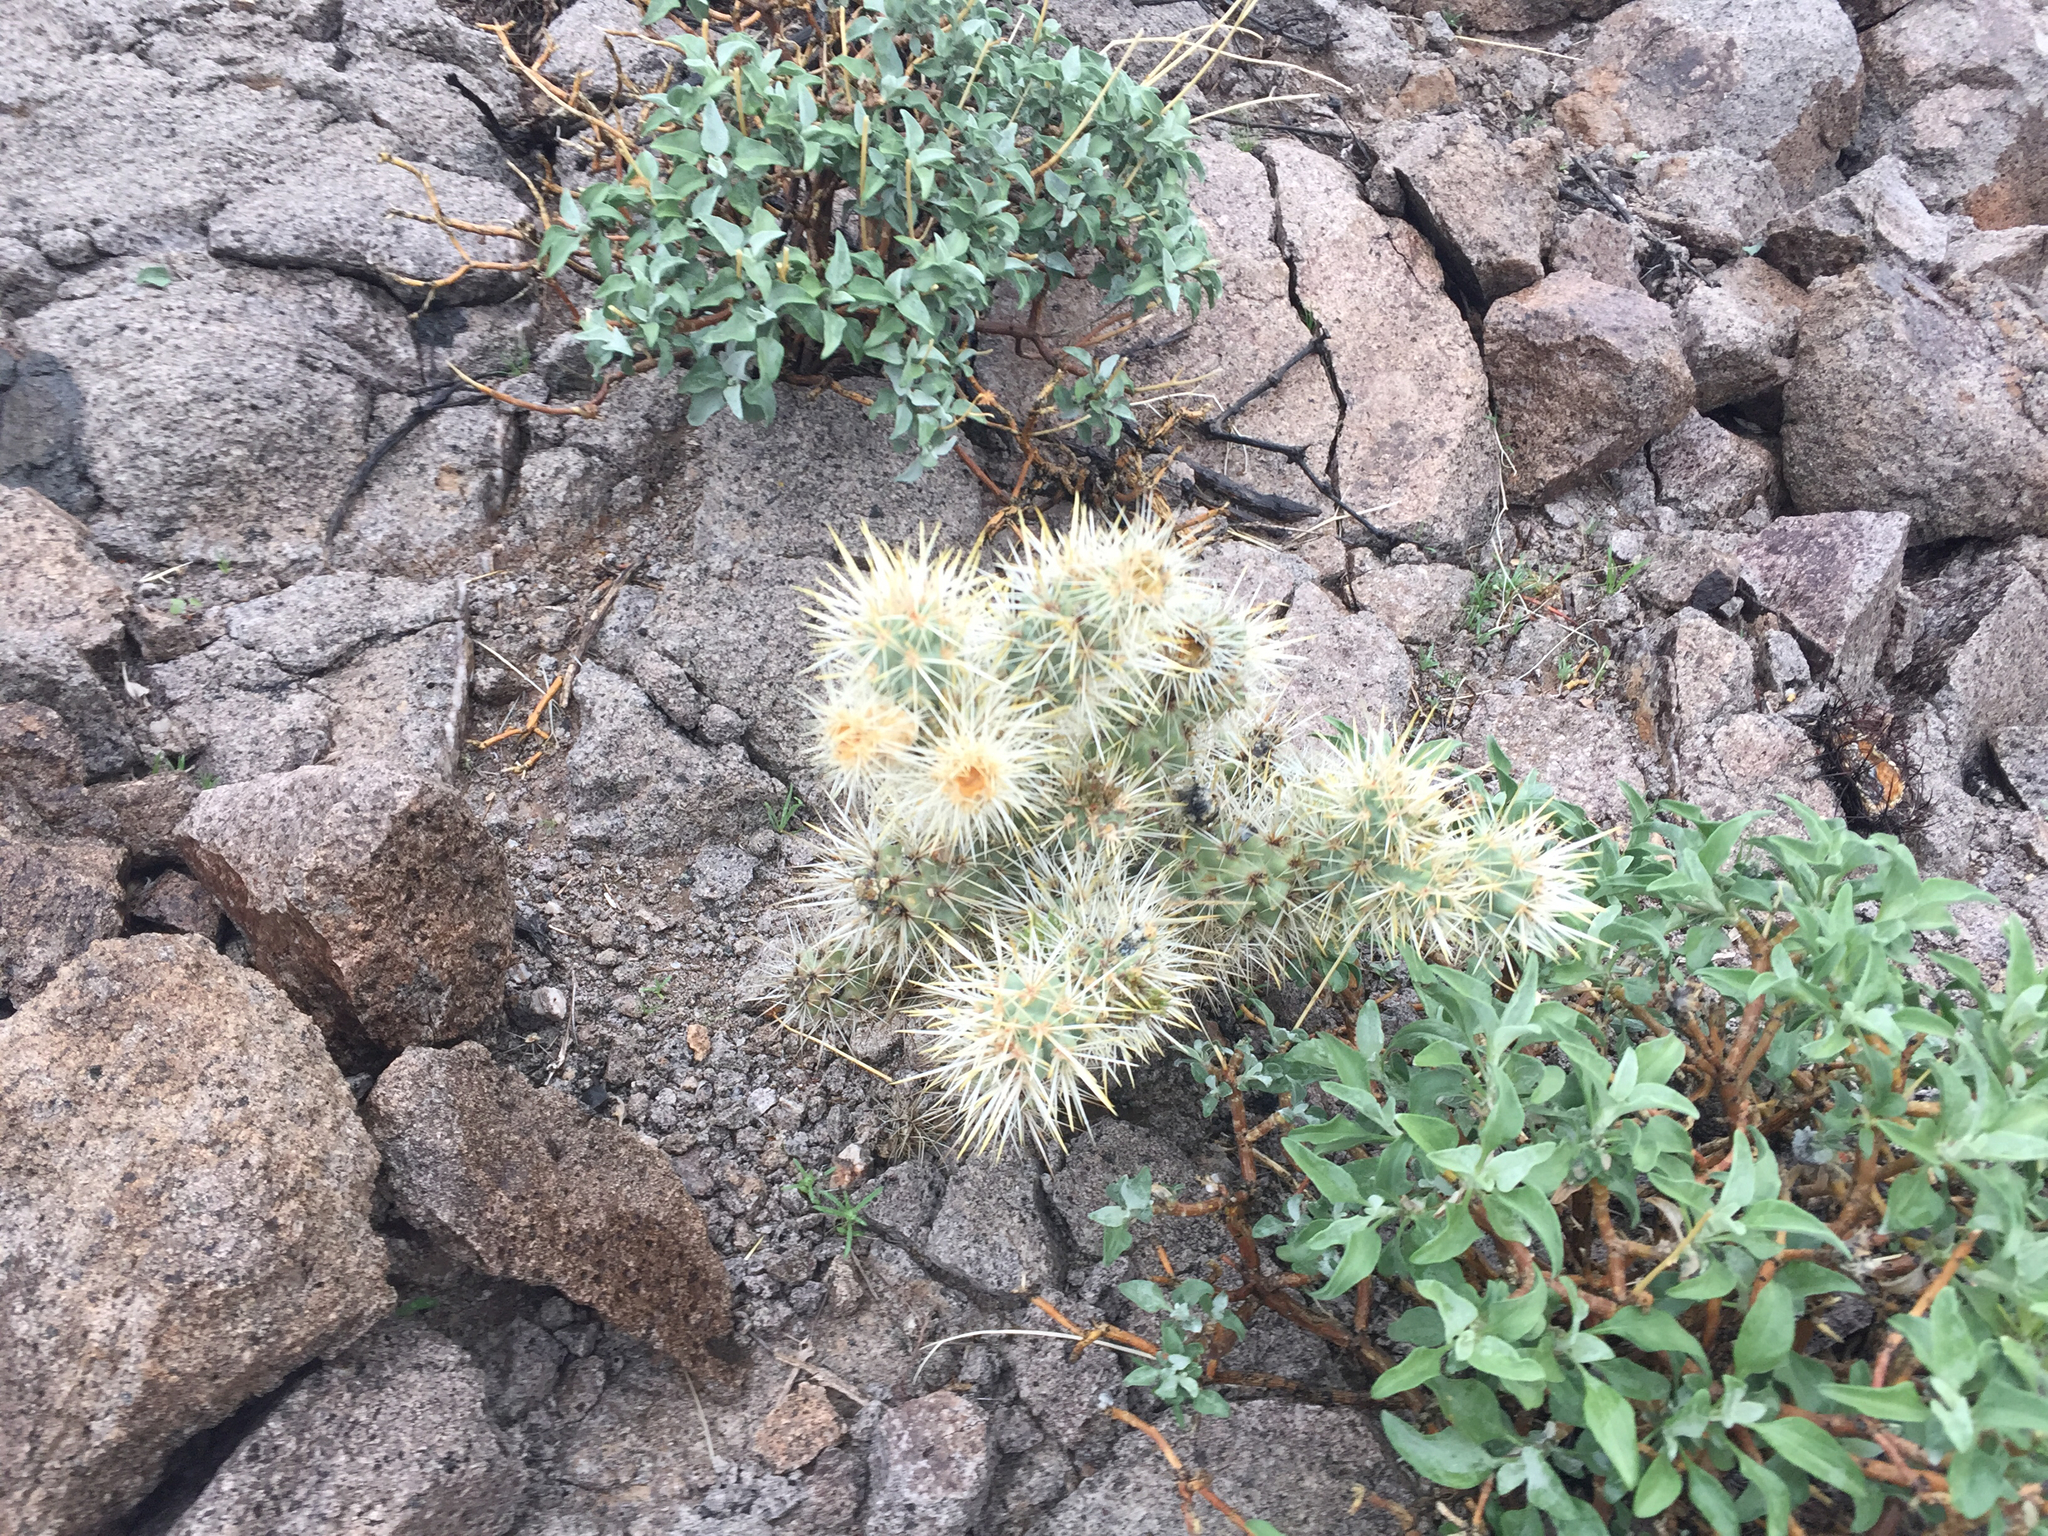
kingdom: Plantae
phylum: Tracheophyta
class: Magnoliopsida
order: Caryophyllales
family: Cactaceae
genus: Cylindropuntia
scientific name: Cylindropuntia echinocarpa
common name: Ground cholla
